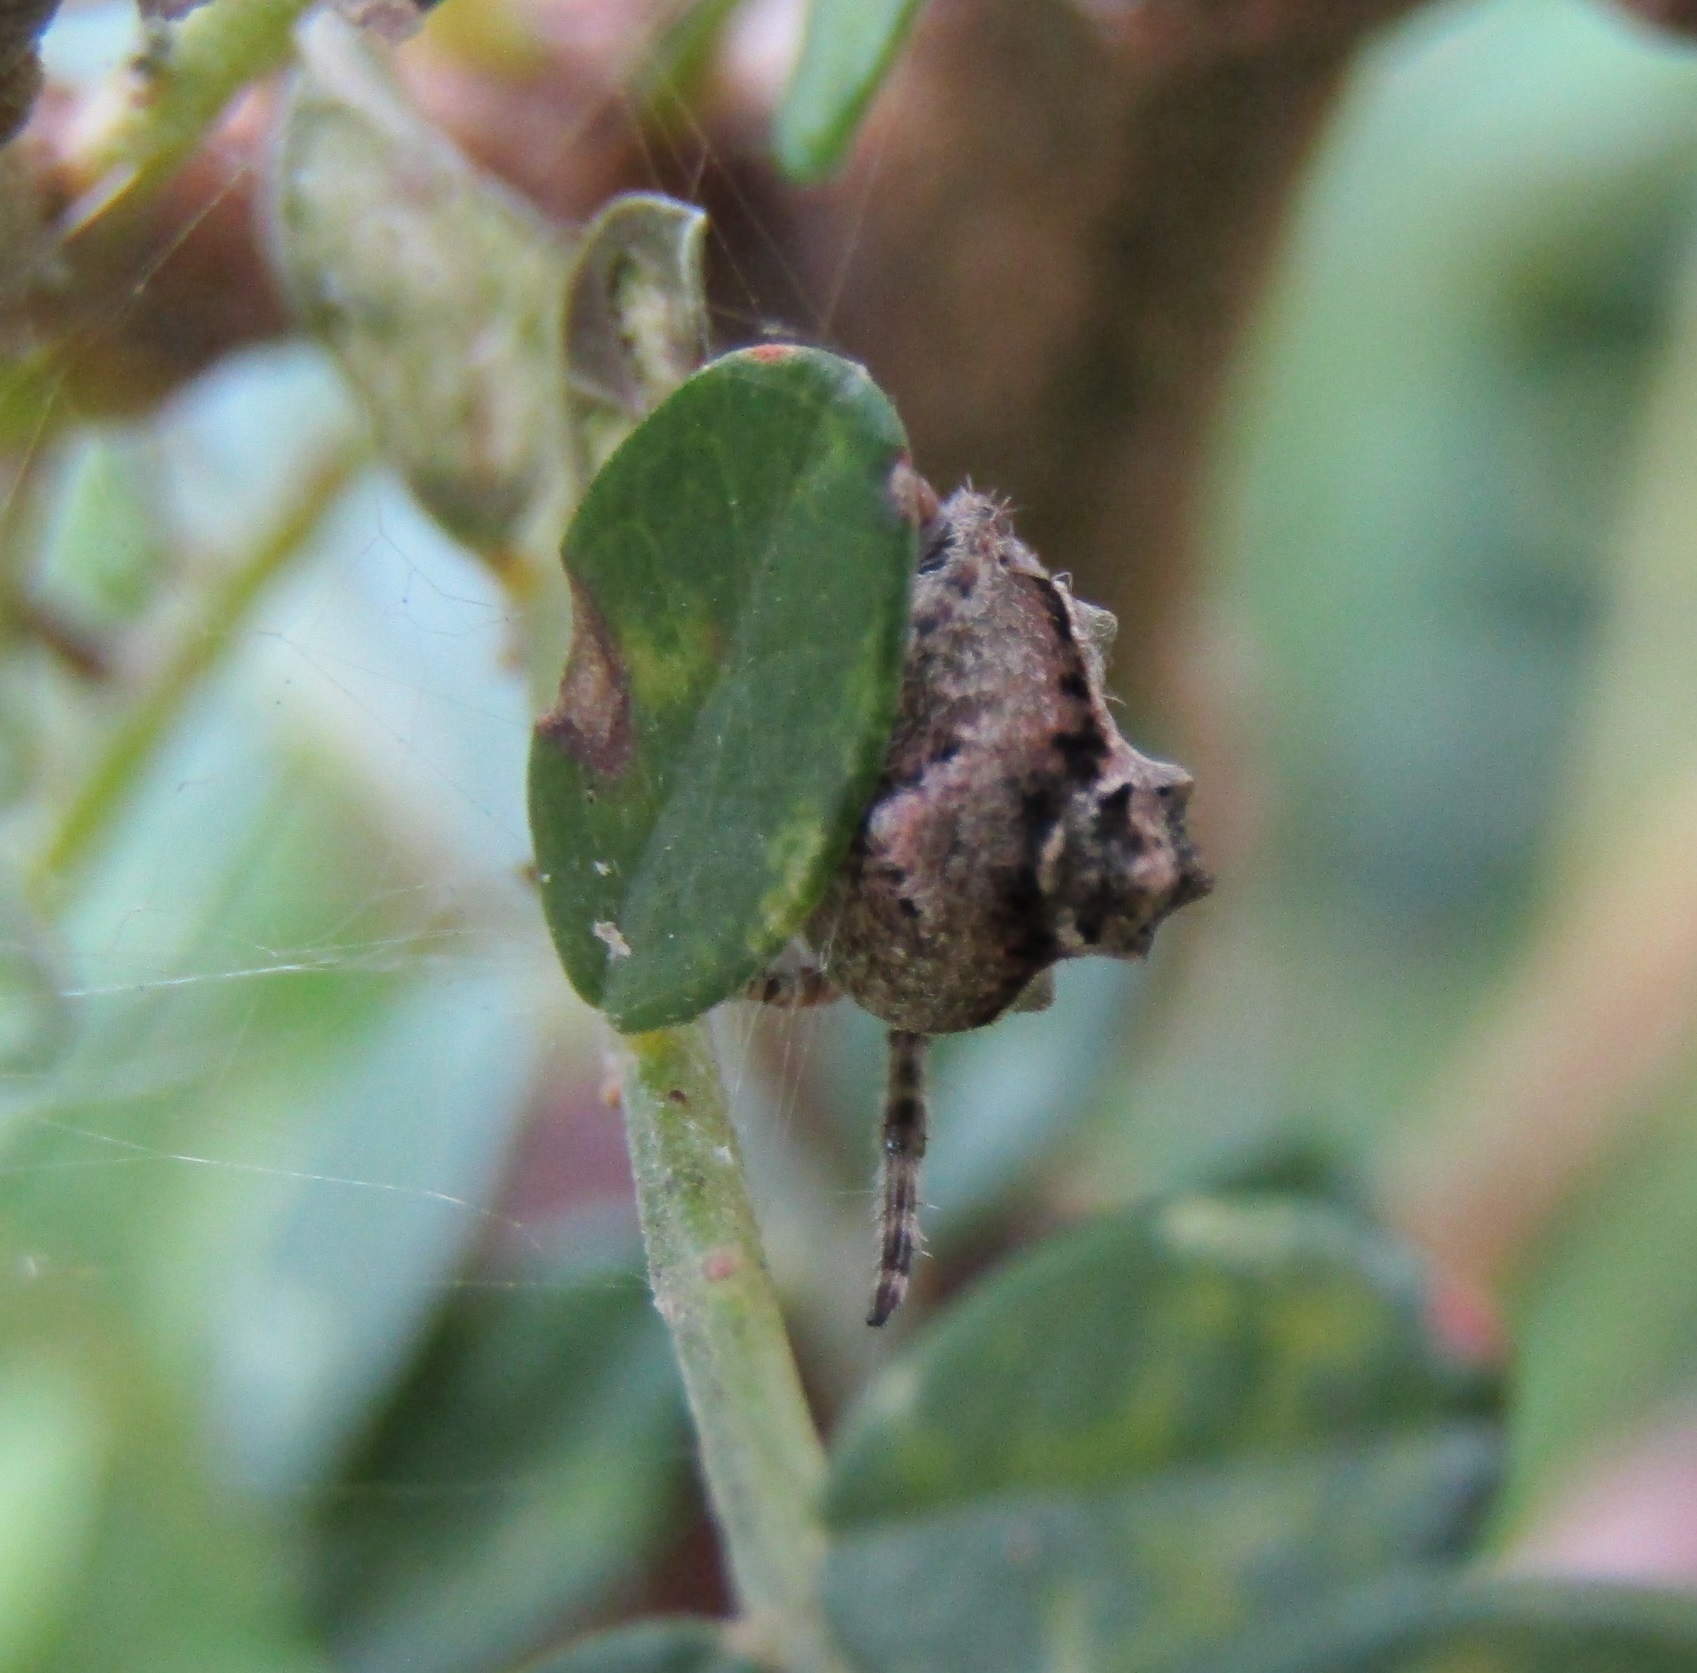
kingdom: Animalia
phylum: Arthropoda
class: Arachnida
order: Araneae
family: Araneidae
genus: Eriophora
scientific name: Eriophora pustulosa
